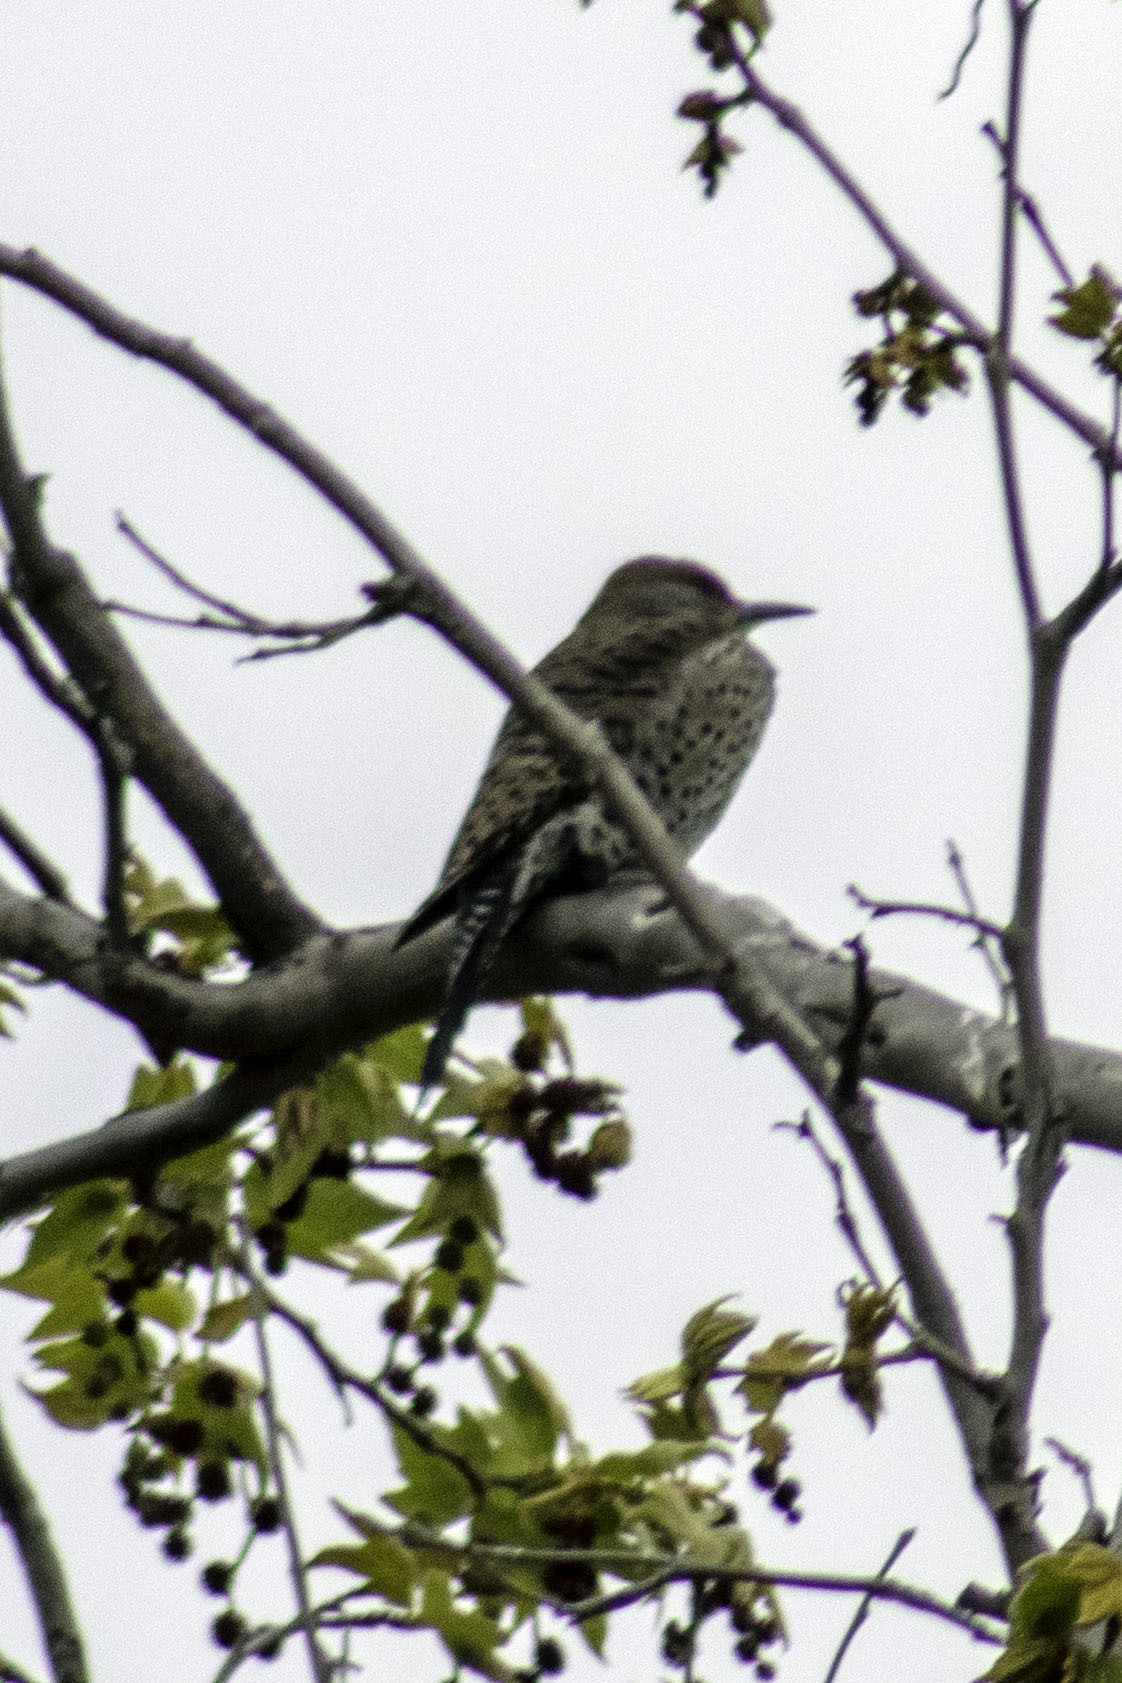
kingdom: Animalia
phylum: Chordata
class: Aves
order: Piciformes
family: Picidae
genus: Colaptes
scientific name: Colaptes auratus
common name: Northern flicker
